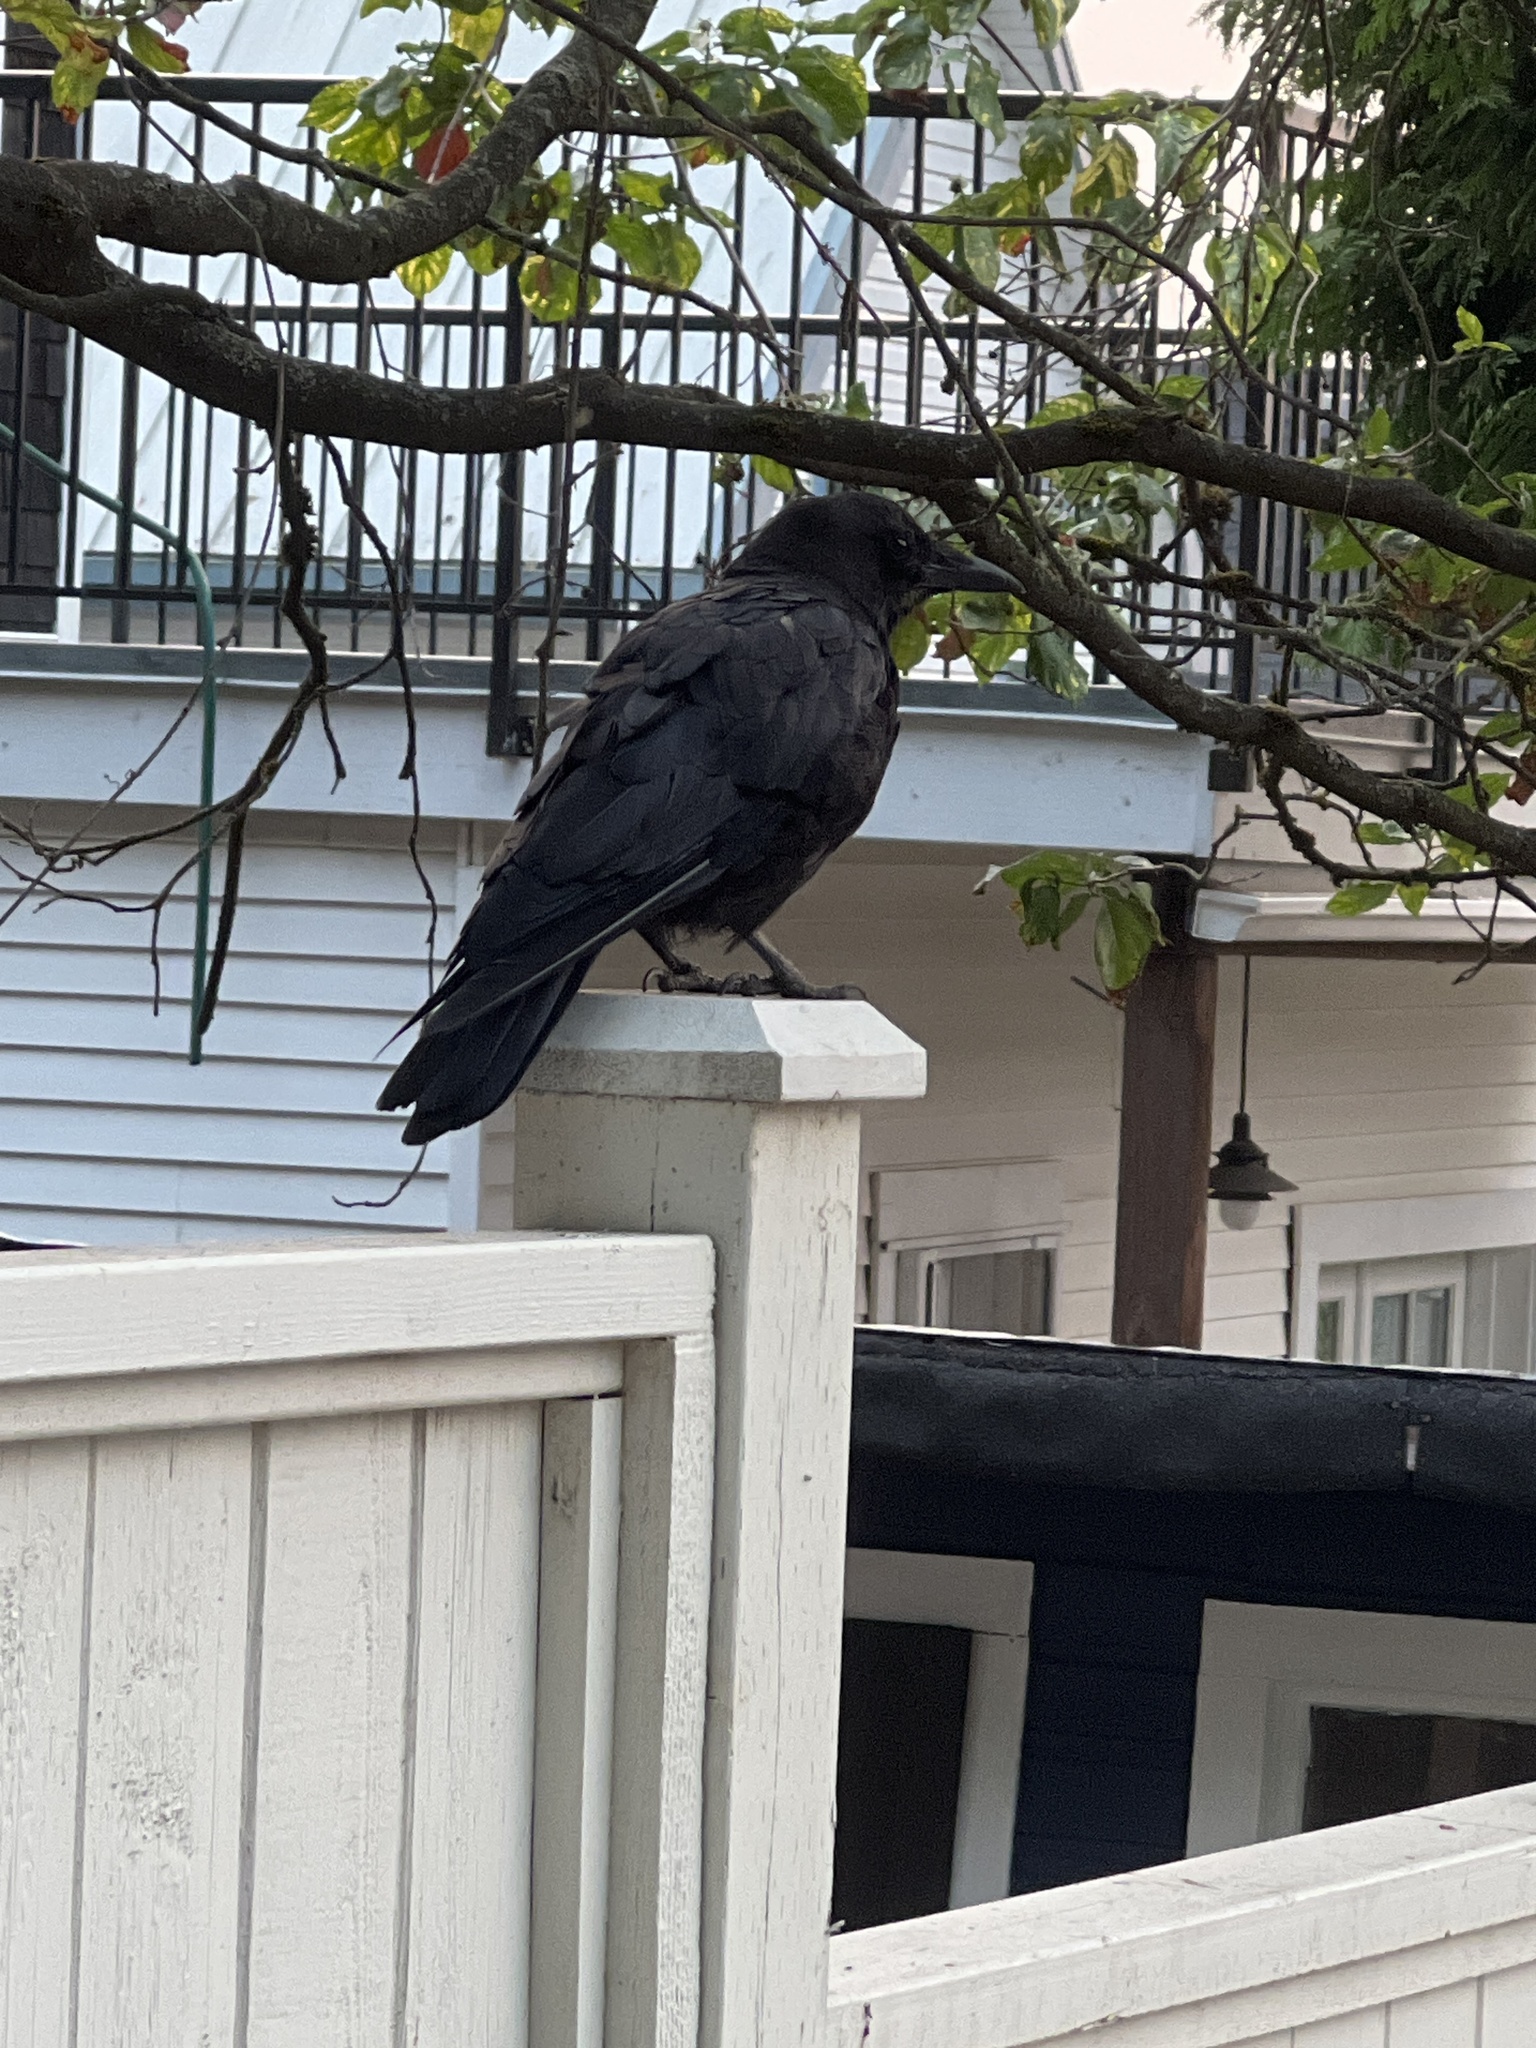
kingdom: Animalia
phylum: Chordata
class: Aves
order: Passeriformes
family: Corvidae
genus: Corvus
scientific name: Corvus brachyrhynchos
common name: American crow
